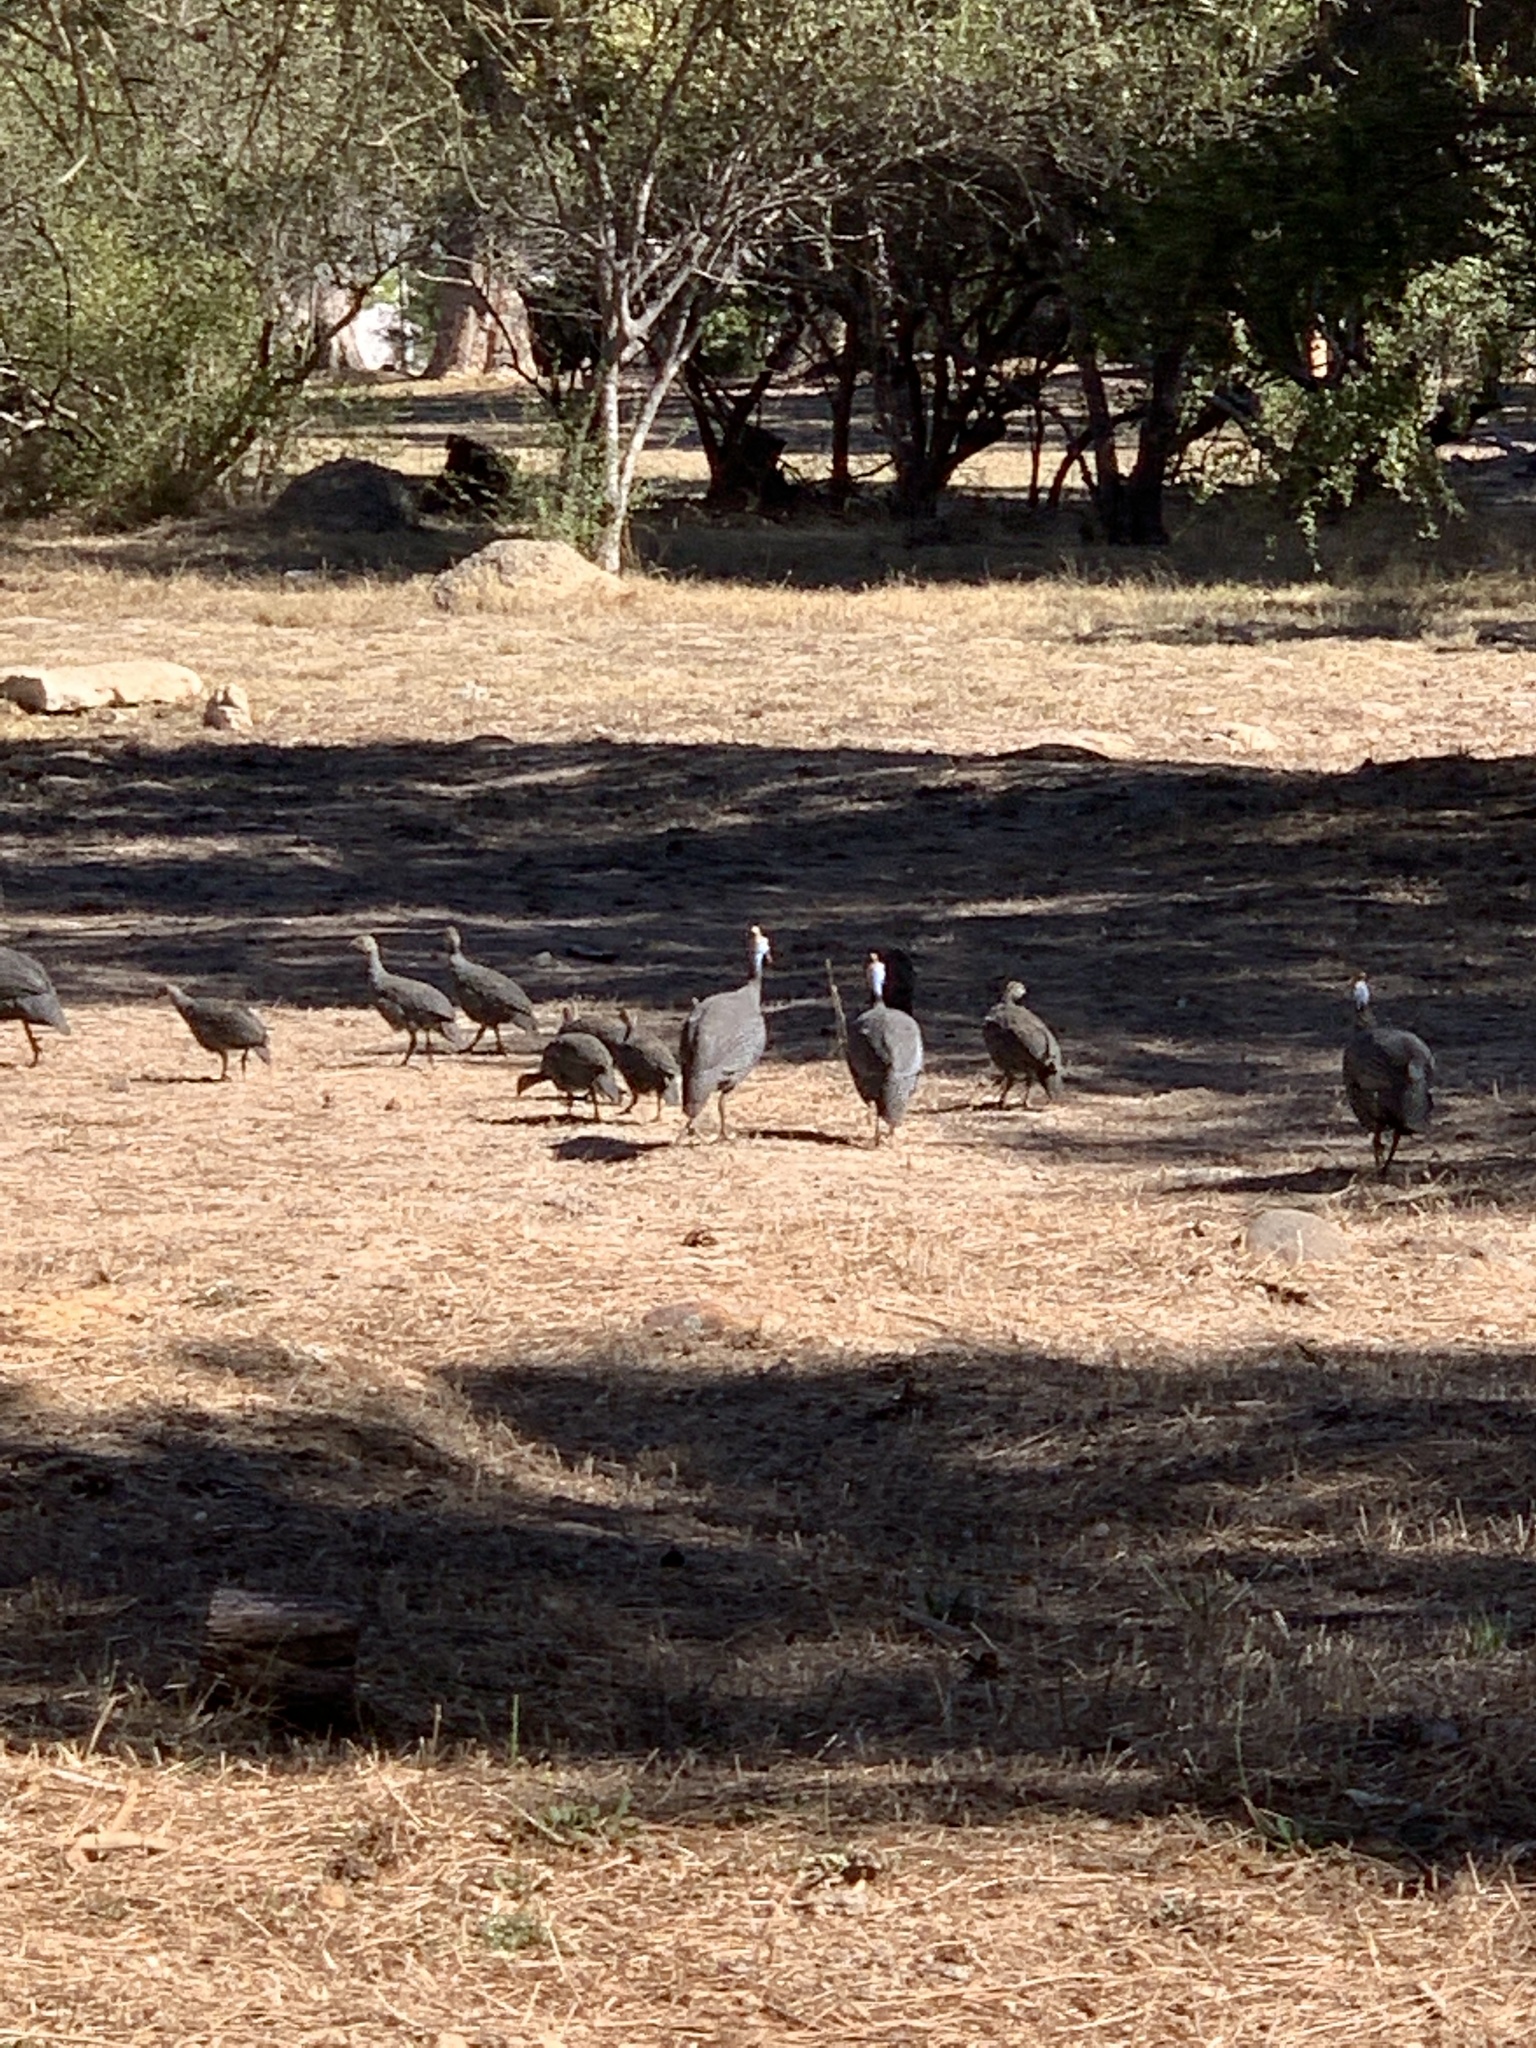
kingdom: Animalia
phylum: Chordata
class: Aves
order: Galliformes
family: Numididae
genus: Numida
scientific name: Numida meleagris
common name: Helmeted guineafowl
